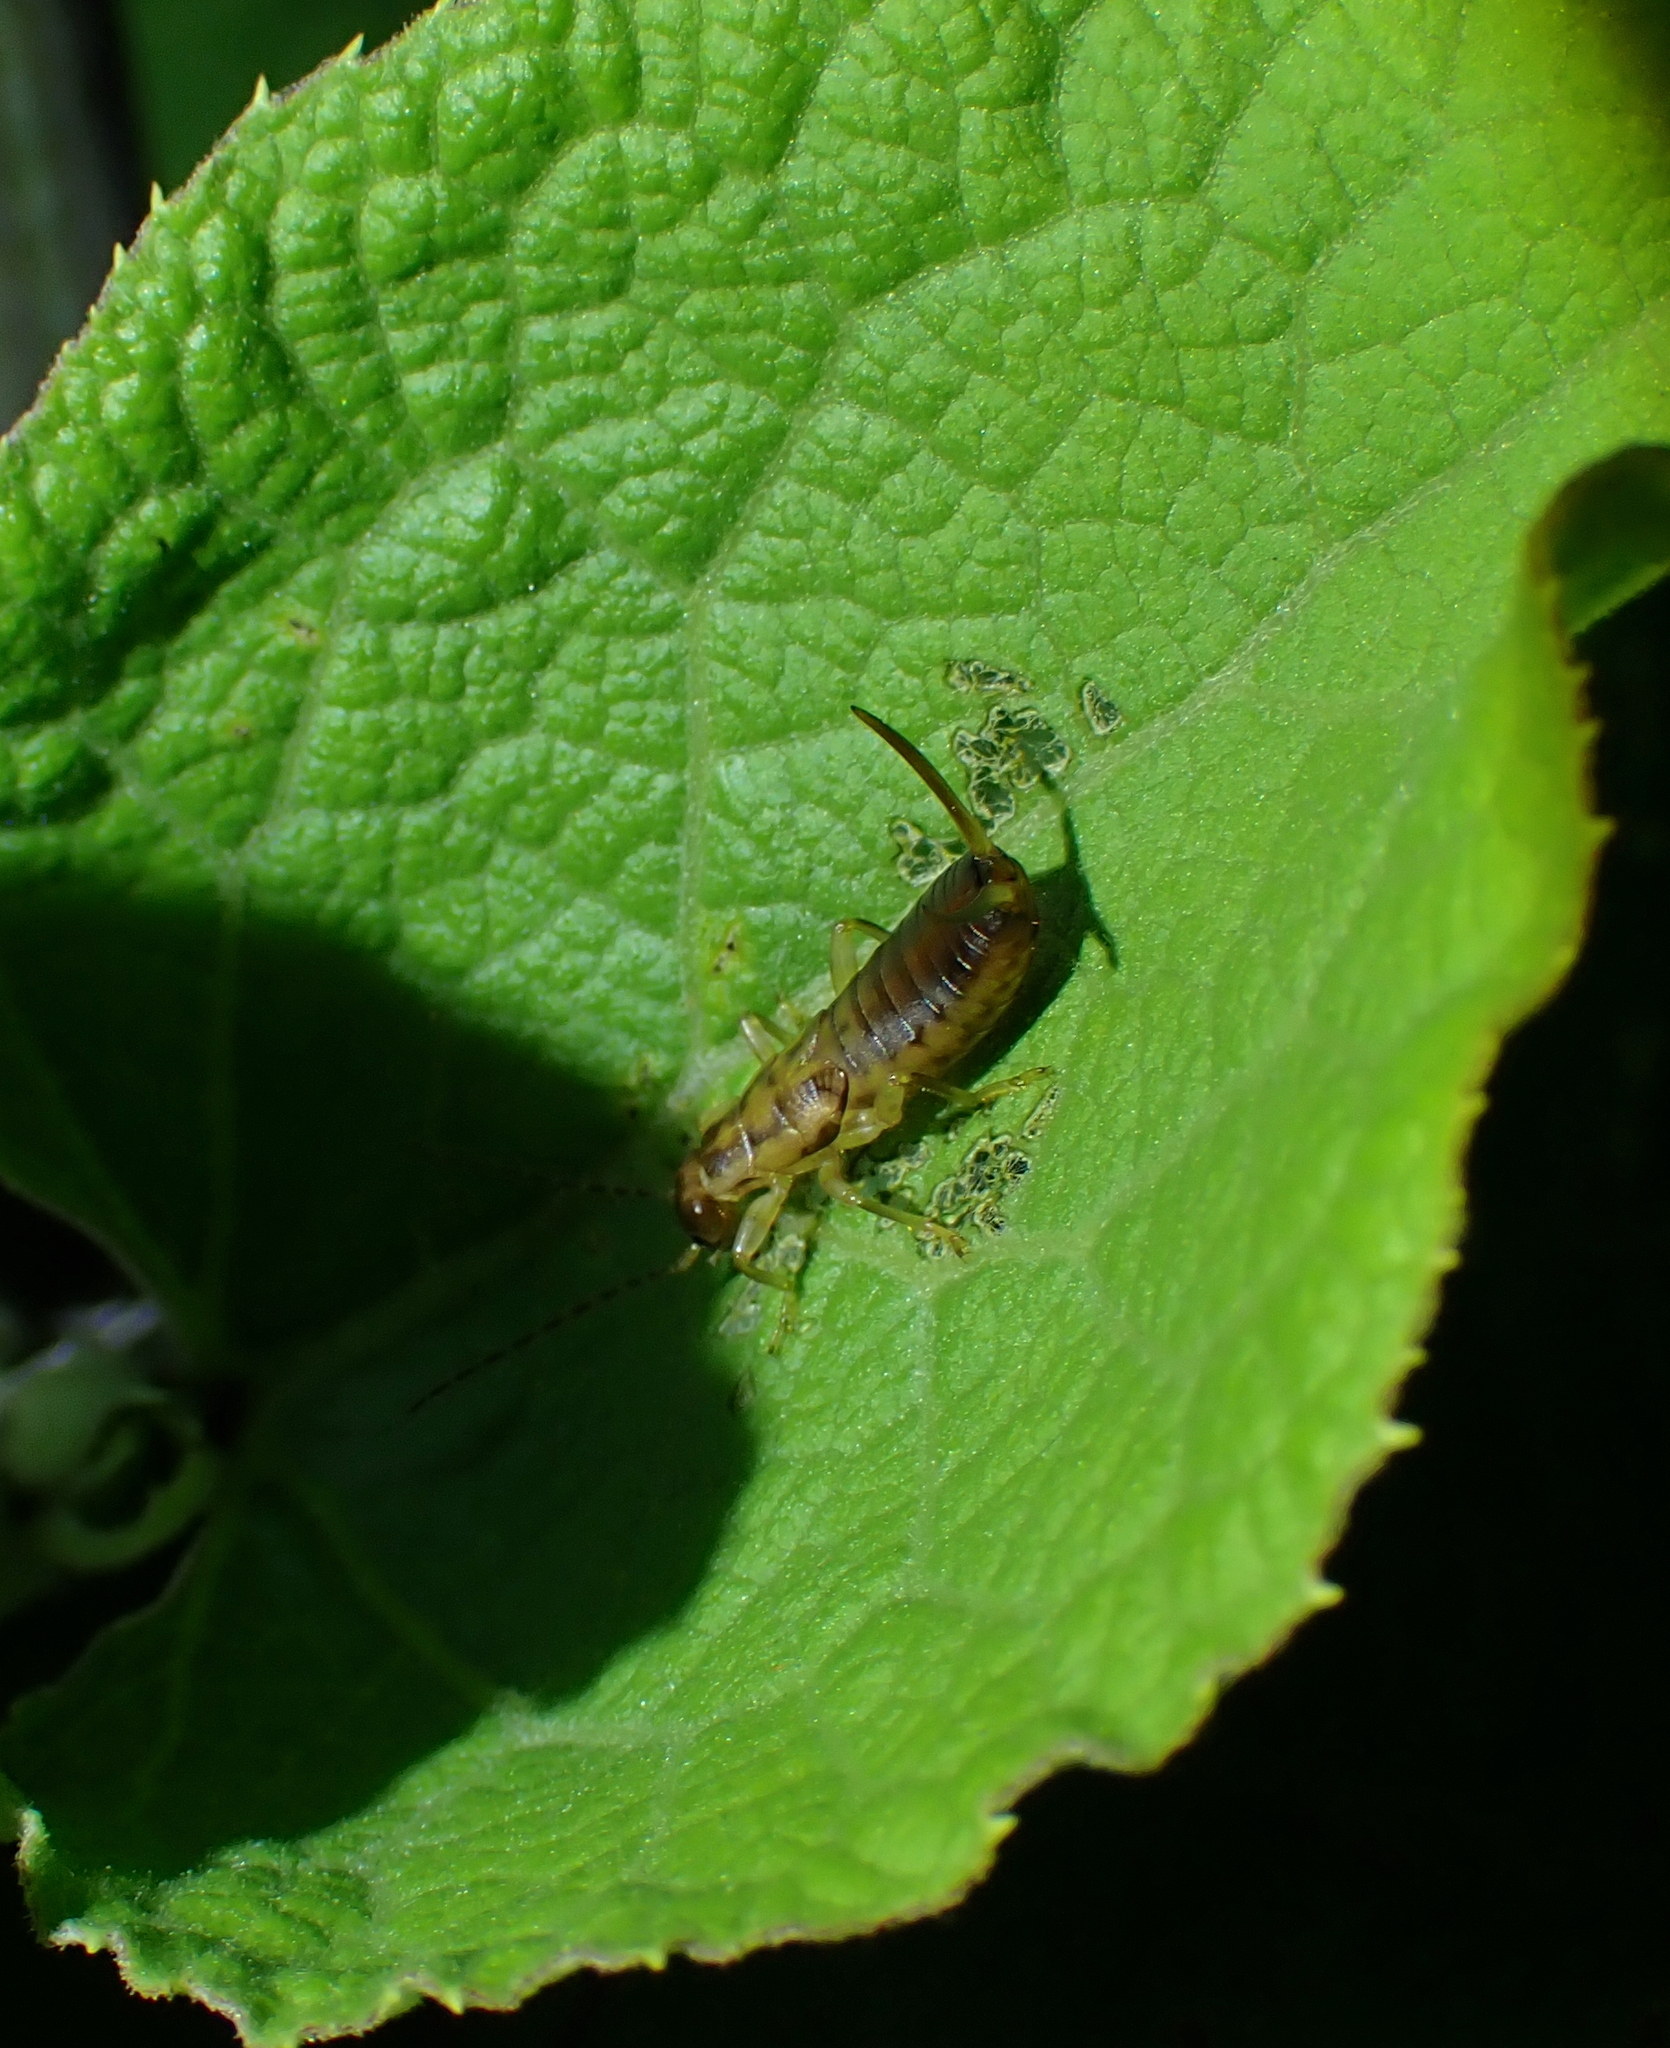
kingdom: Animalia
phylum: Arthropoda
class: Insecta
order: Dermaptera
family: Forficulidae
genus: Forficula
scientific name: Forficula auricularia
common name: European earwig
